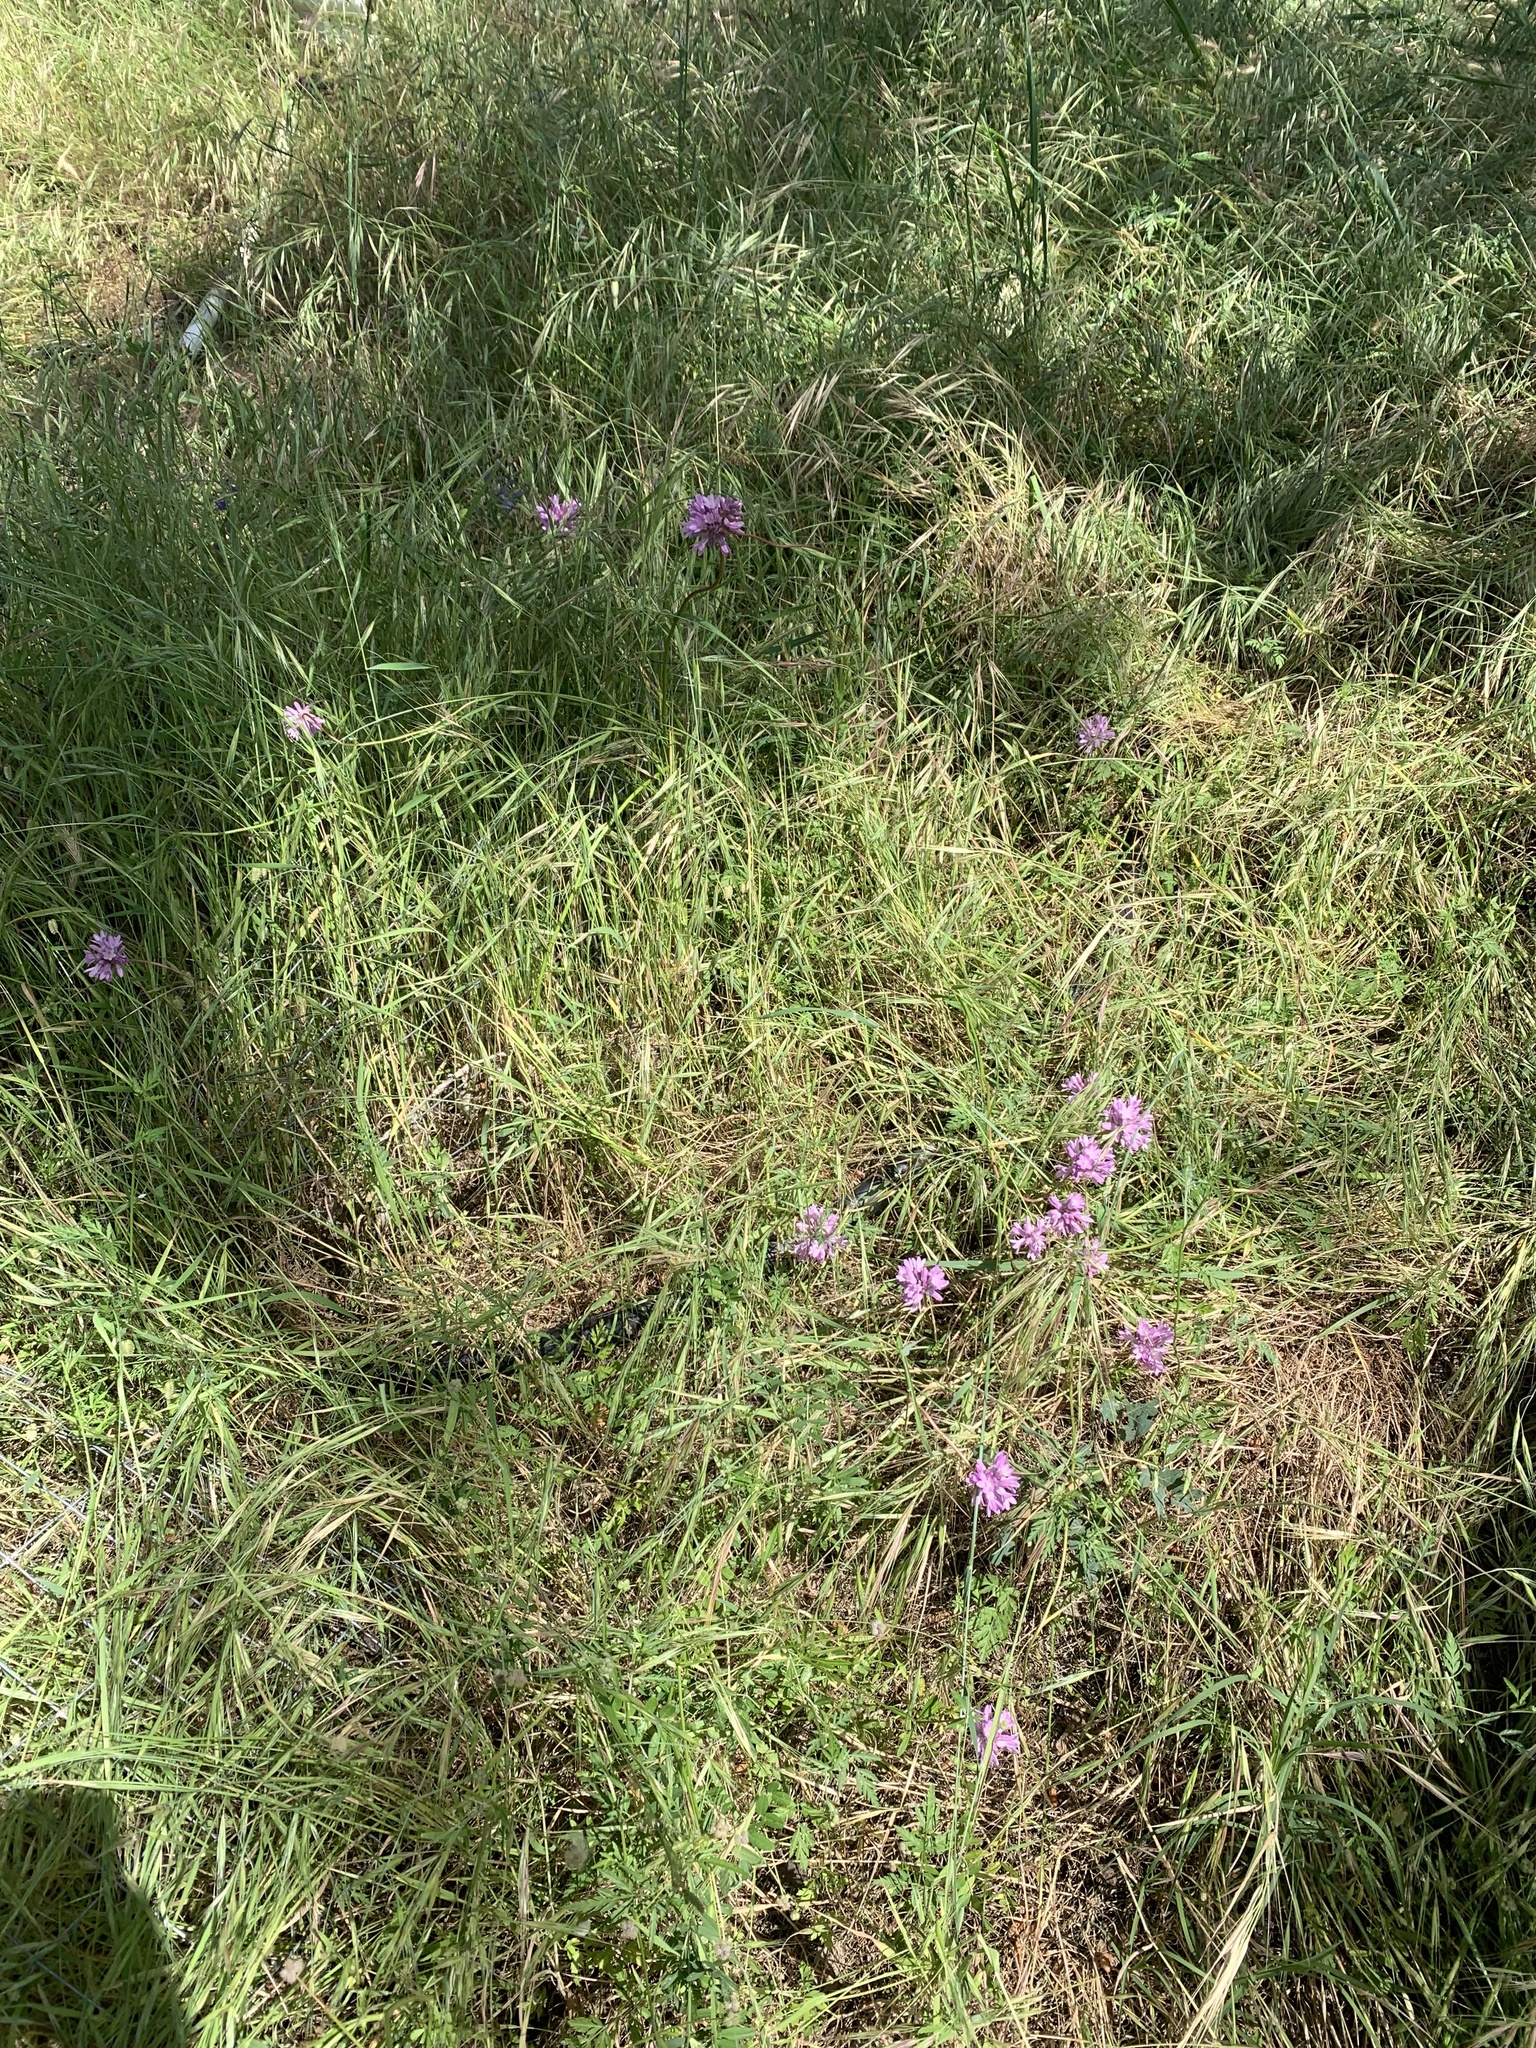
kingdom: Plantae
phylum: Tracheophyta
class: Liliopsida
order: Asparagales
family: Asparagaceae
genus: Dichelostemma
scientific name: Dichelostemma volubile
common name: Trining brodiaea
